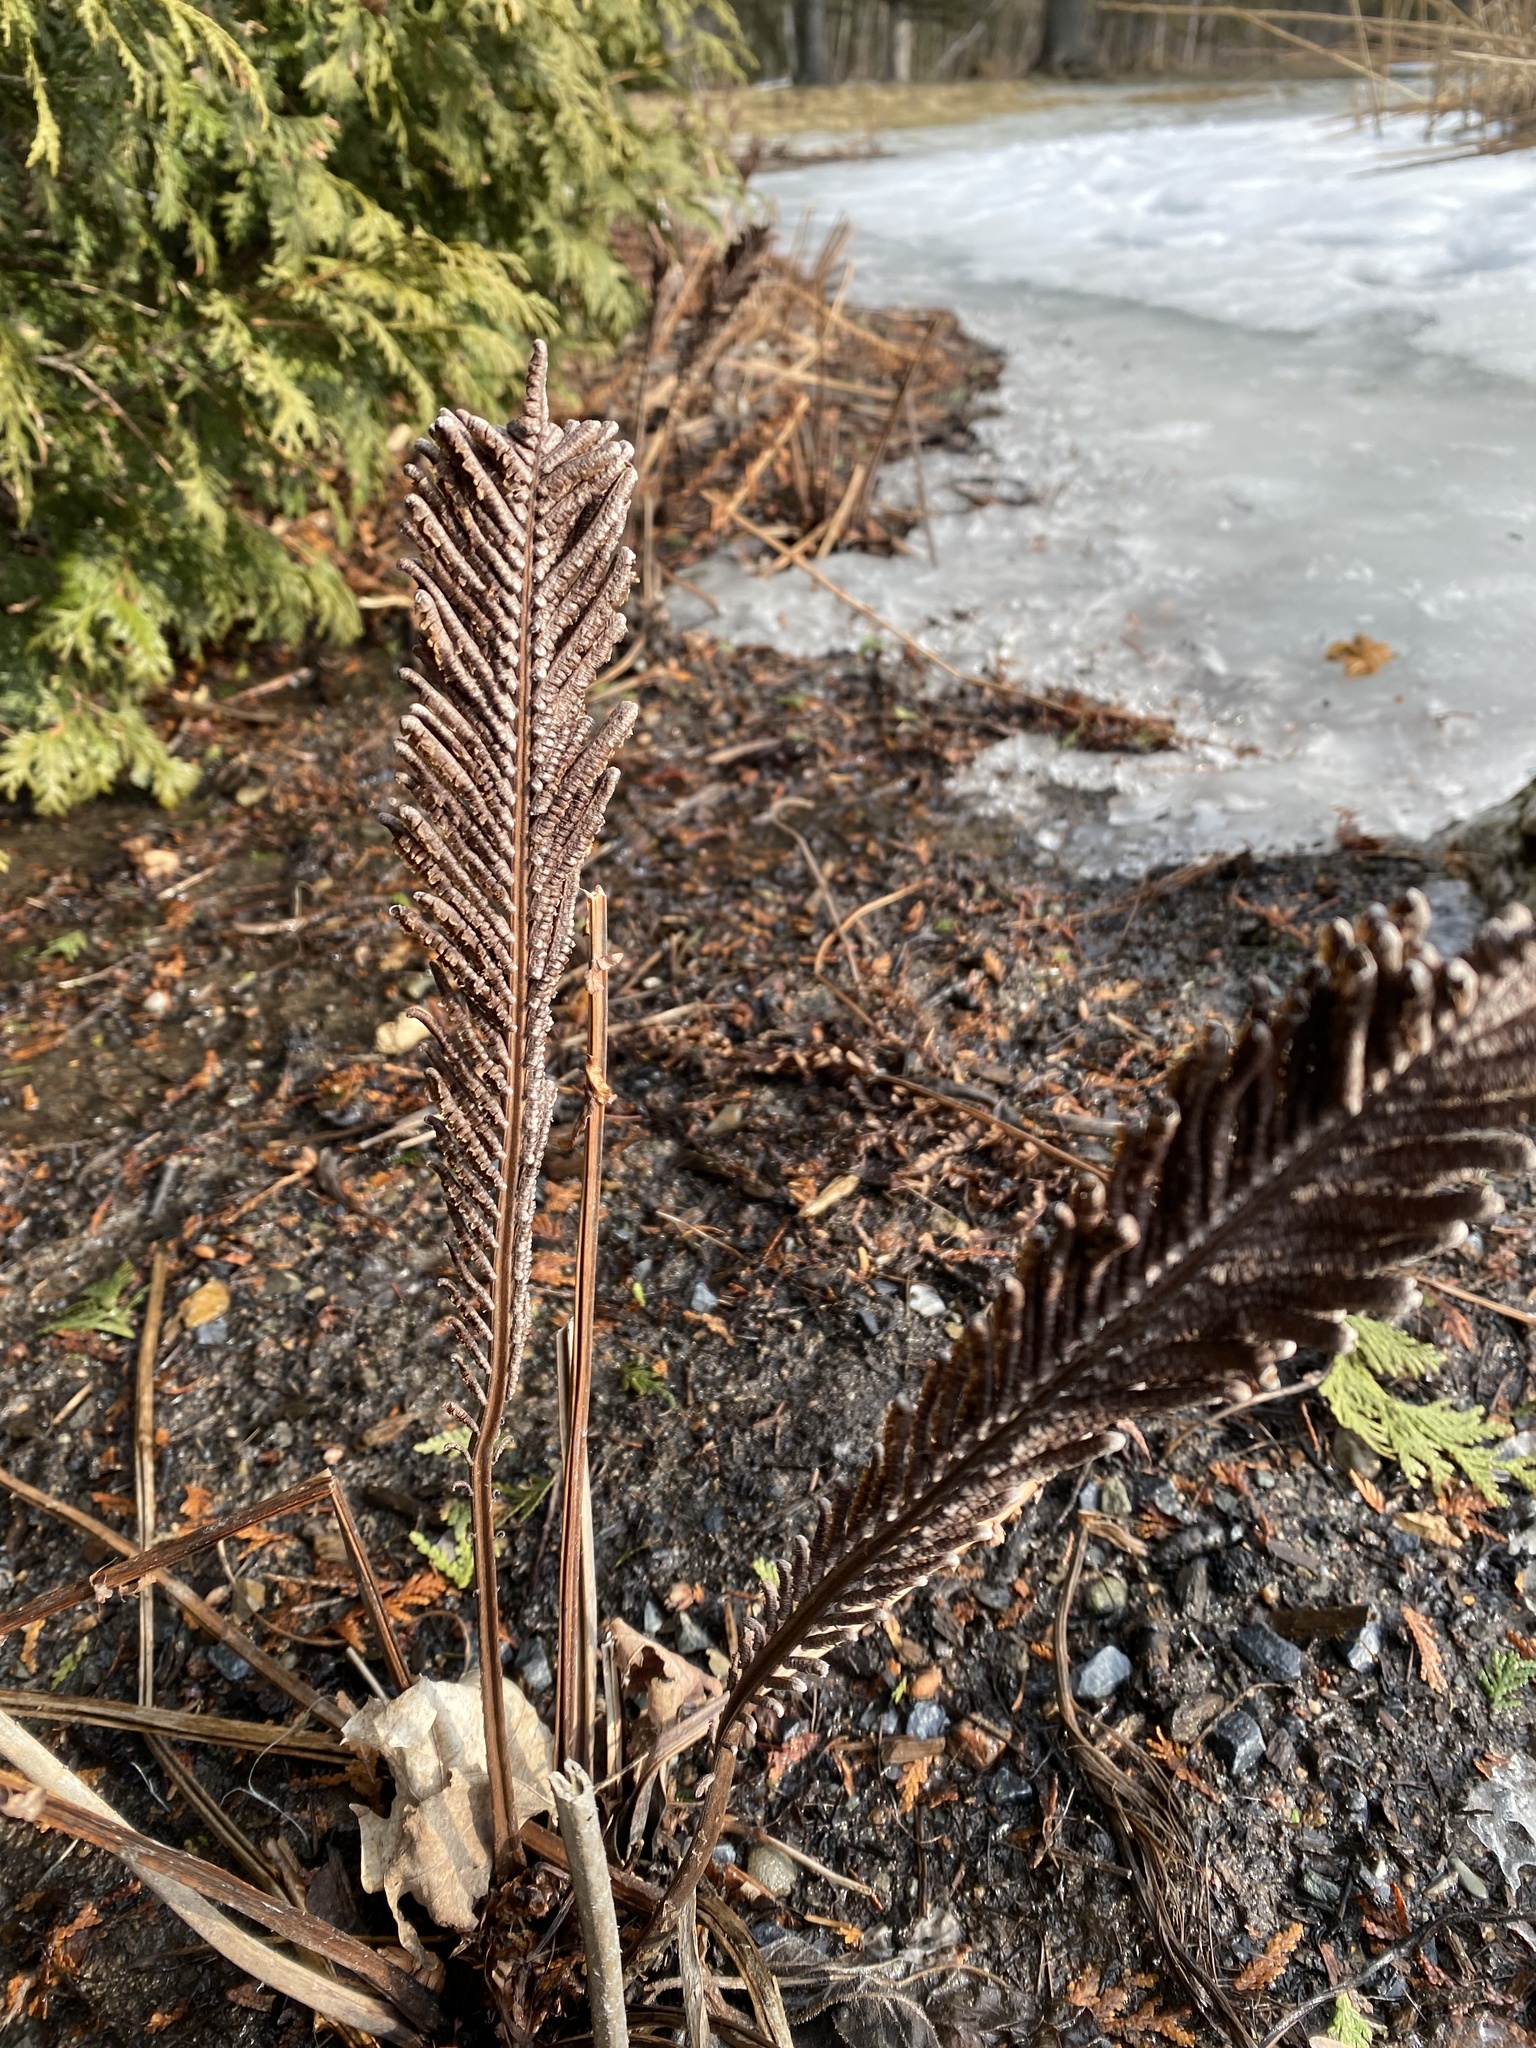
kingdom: Plantae
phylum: Tracheophyta
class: Polypodiopsida
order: Polypodiales
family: Onocleaceae
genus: Matteuccia
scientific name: Matteuccia struthiopteris
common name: Ostrich fern
